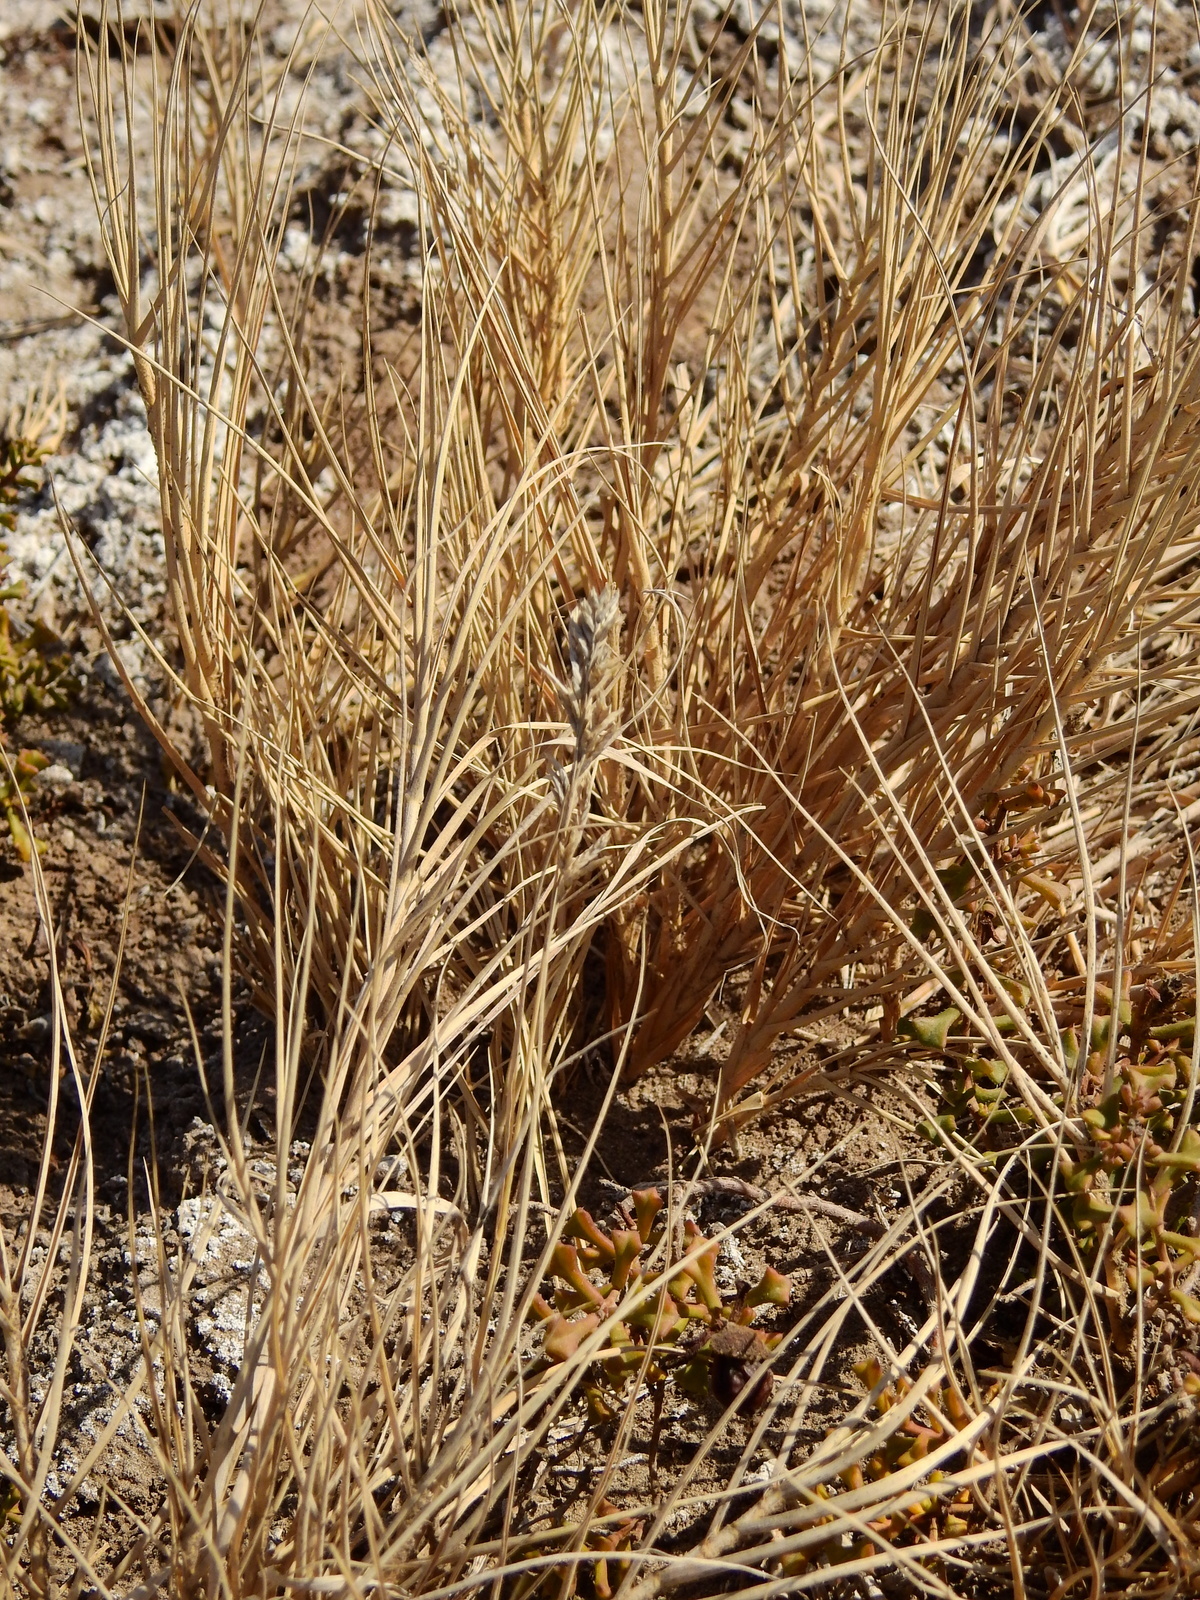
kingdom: Plantae
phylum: Tracheophyta
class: Liliopsida
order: Poales
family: Poaceae
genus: Distichlis
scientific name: Distichlis spicata
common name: Saltgrass
